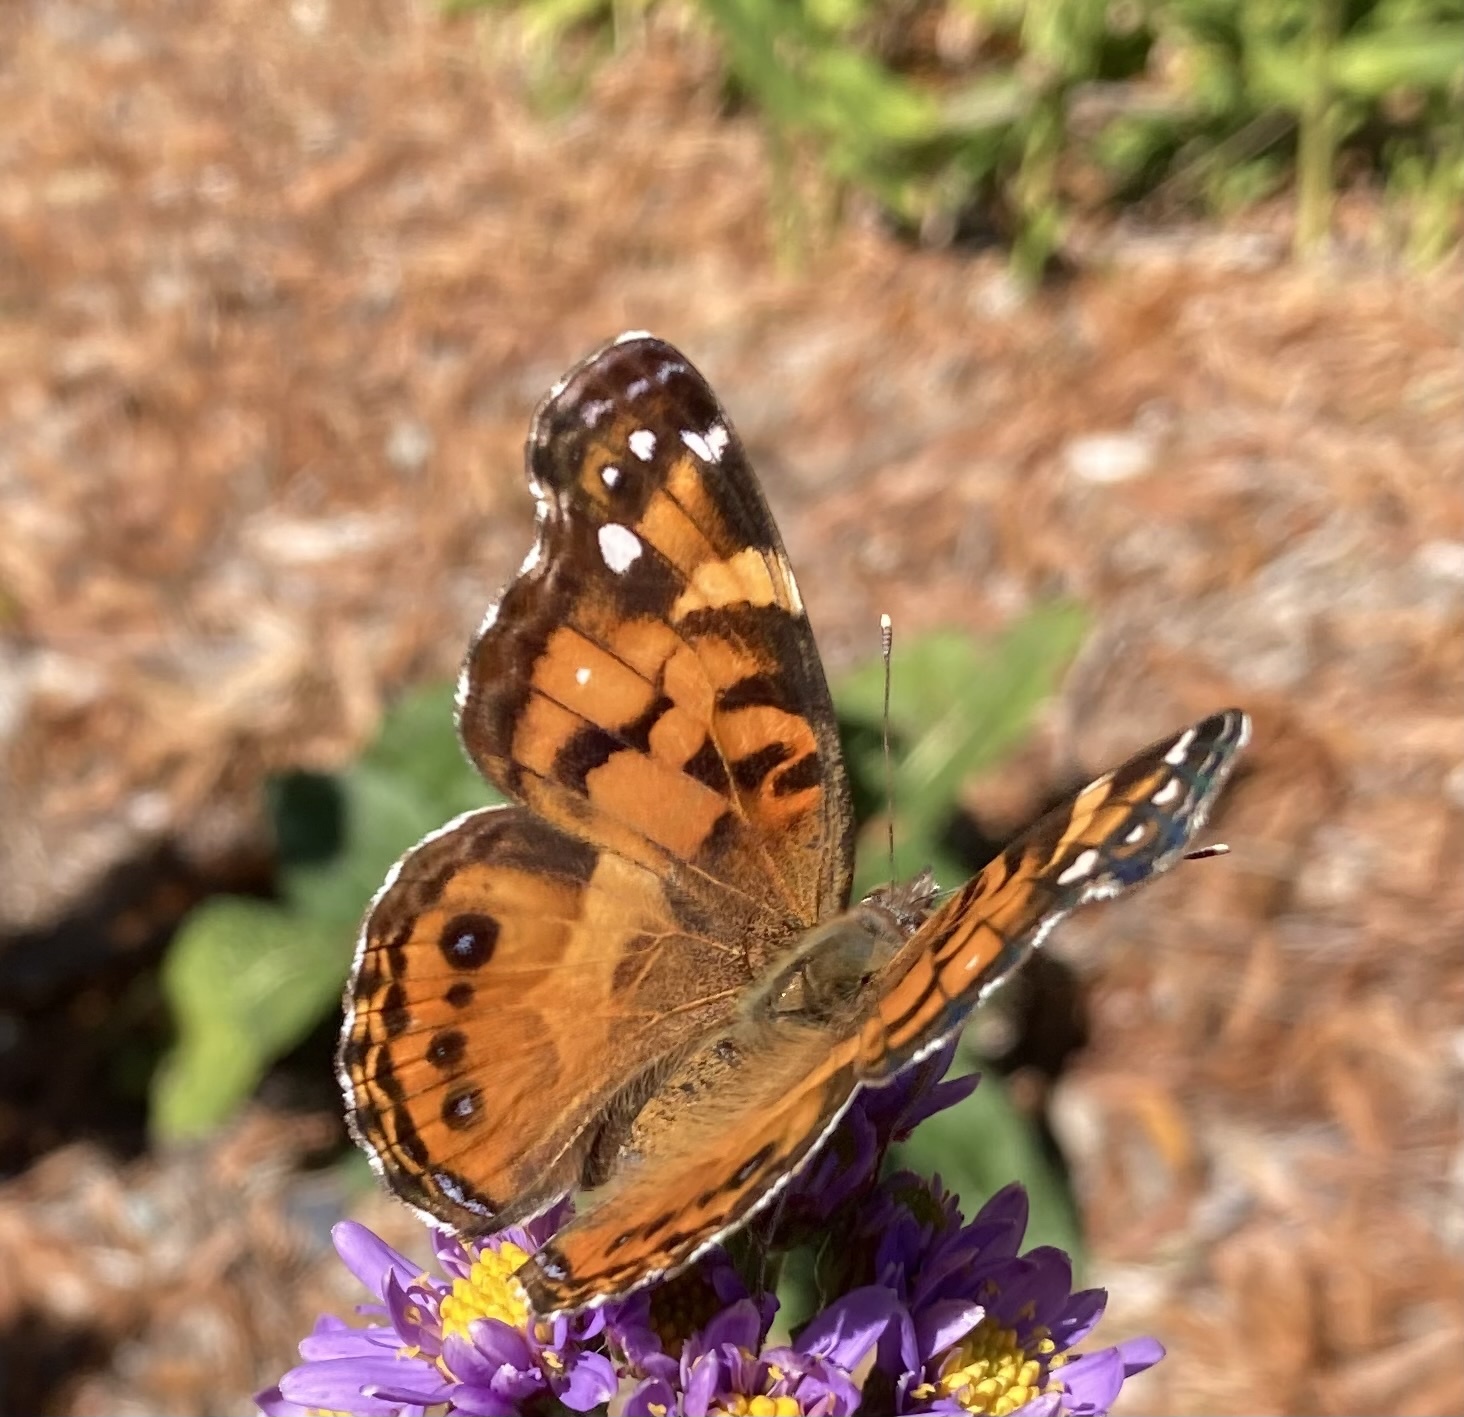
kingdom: Animalia
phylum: Arthropoda
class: Insecta
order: Lepidoptera
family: Nymphalidae
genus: Vanessa
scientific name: Vanessa virginiensis
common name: American lady
